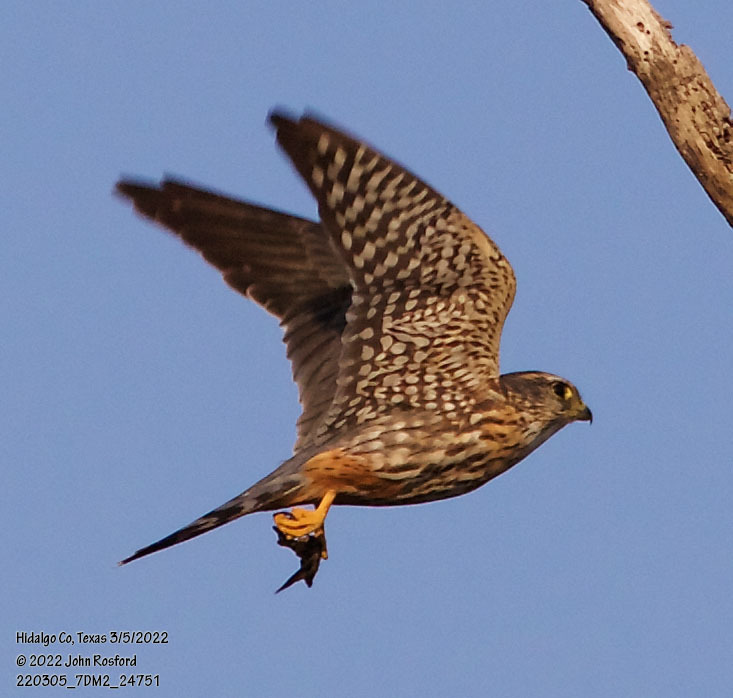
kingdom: Animalia
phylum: Chordata
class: Aves
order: Falconiformes
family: Falconidae
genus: Falco
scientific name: Falco columbarius
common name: Merlin
